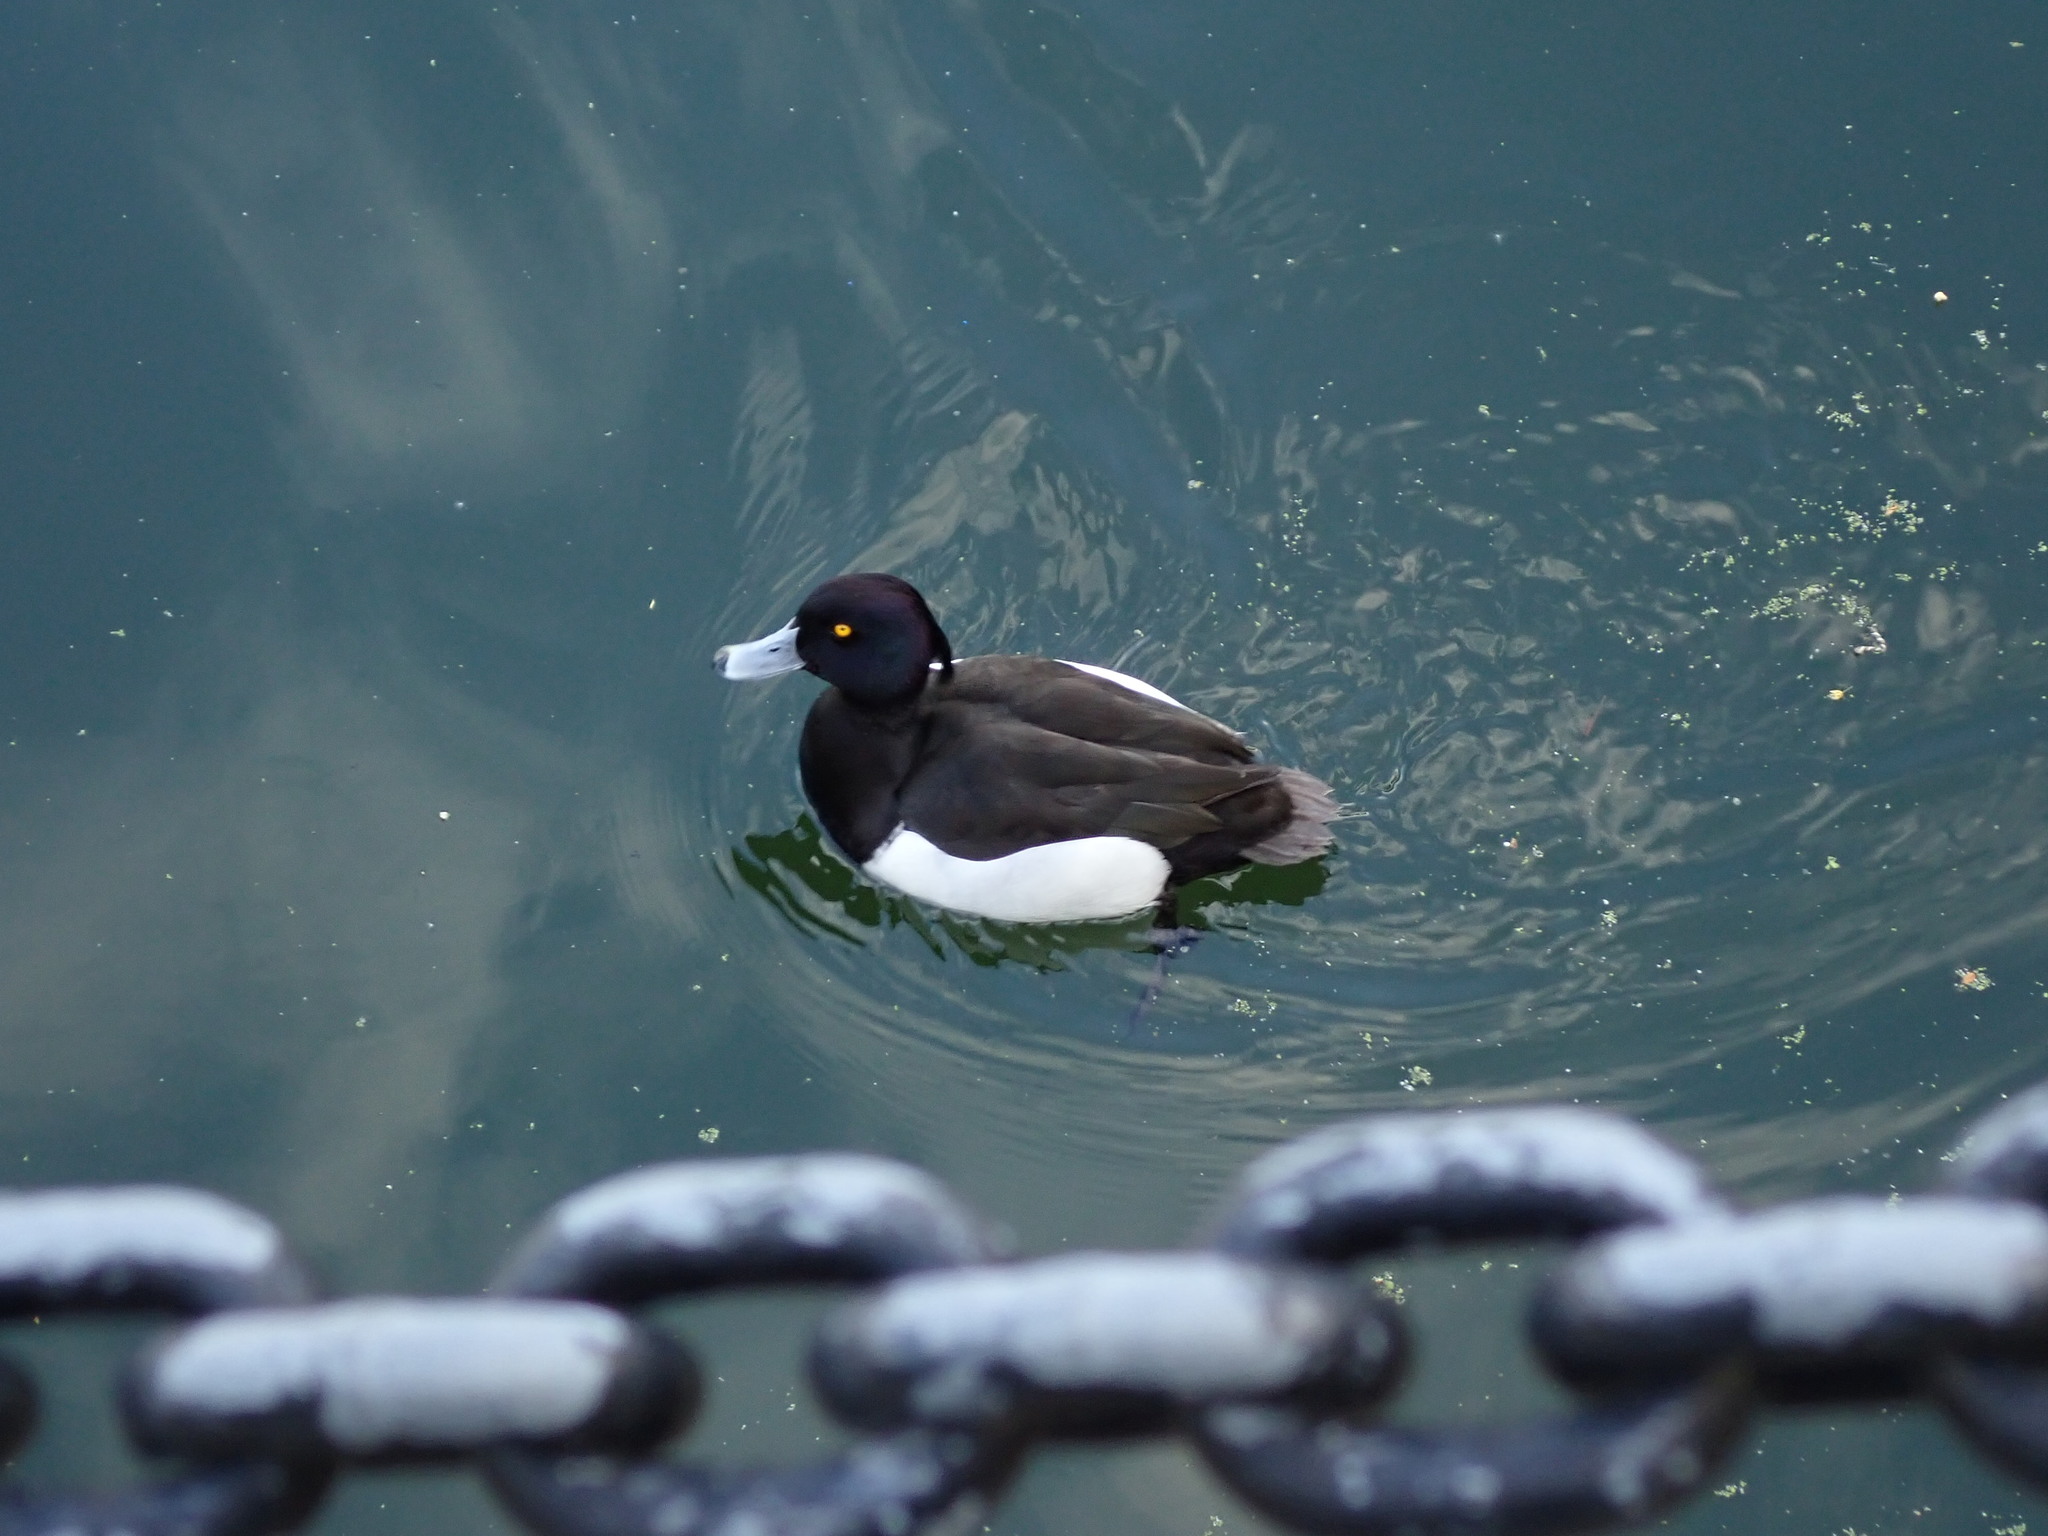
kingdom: Animalia
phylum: Chordata
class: Aves
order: Anseriformes
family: Anatidae
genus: Aythya
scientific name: Aythya fuligula
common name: Tufted duck
